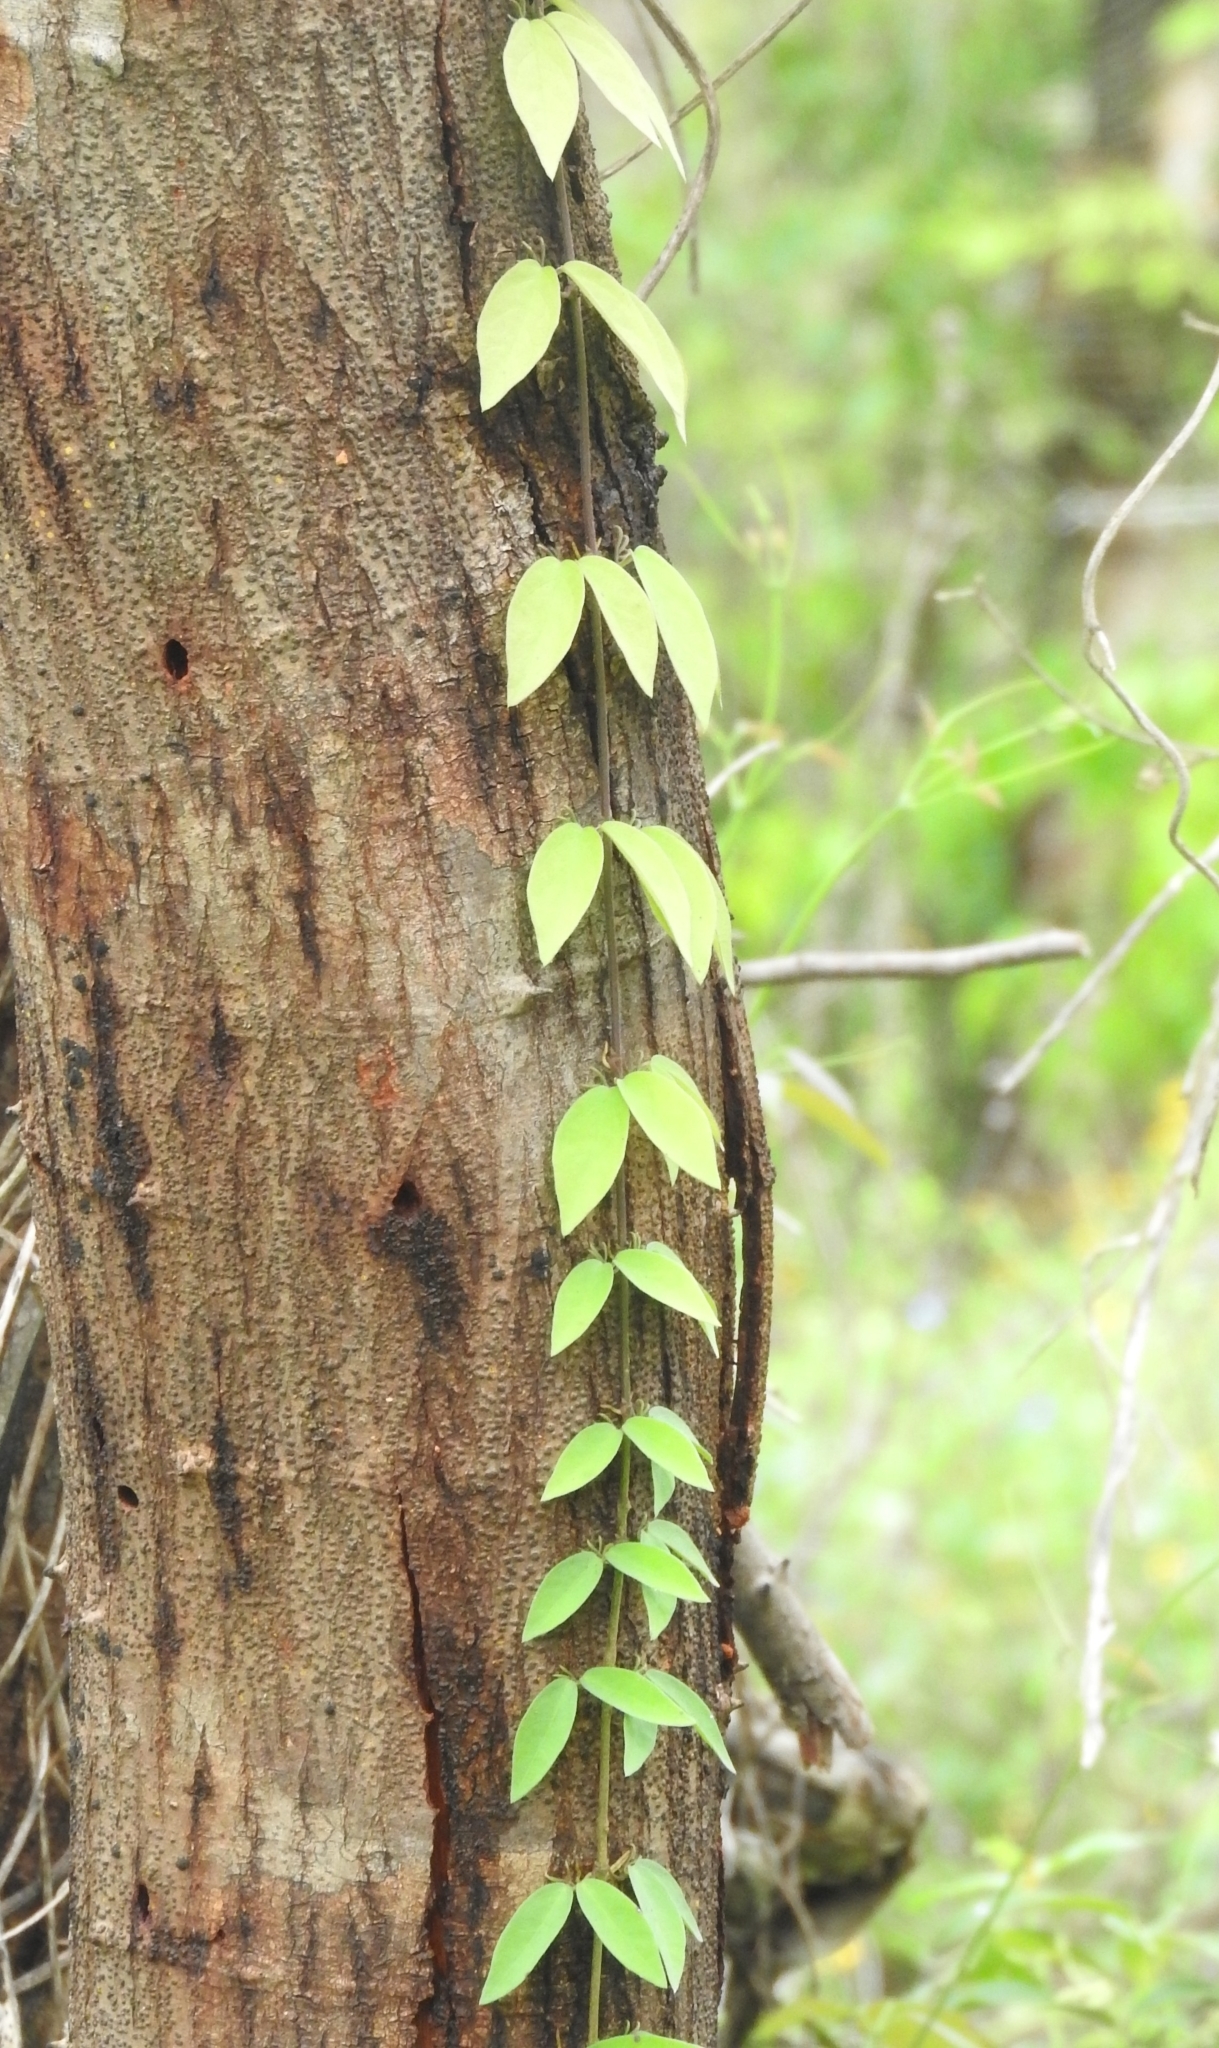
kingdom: Plantae
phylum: Tracheophyta
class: Magnoliopsida
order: Lamiales
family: Bignoniaceae
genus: Dolichandra
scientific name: Dolichandra unguis-cati
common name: Catclaw vine
